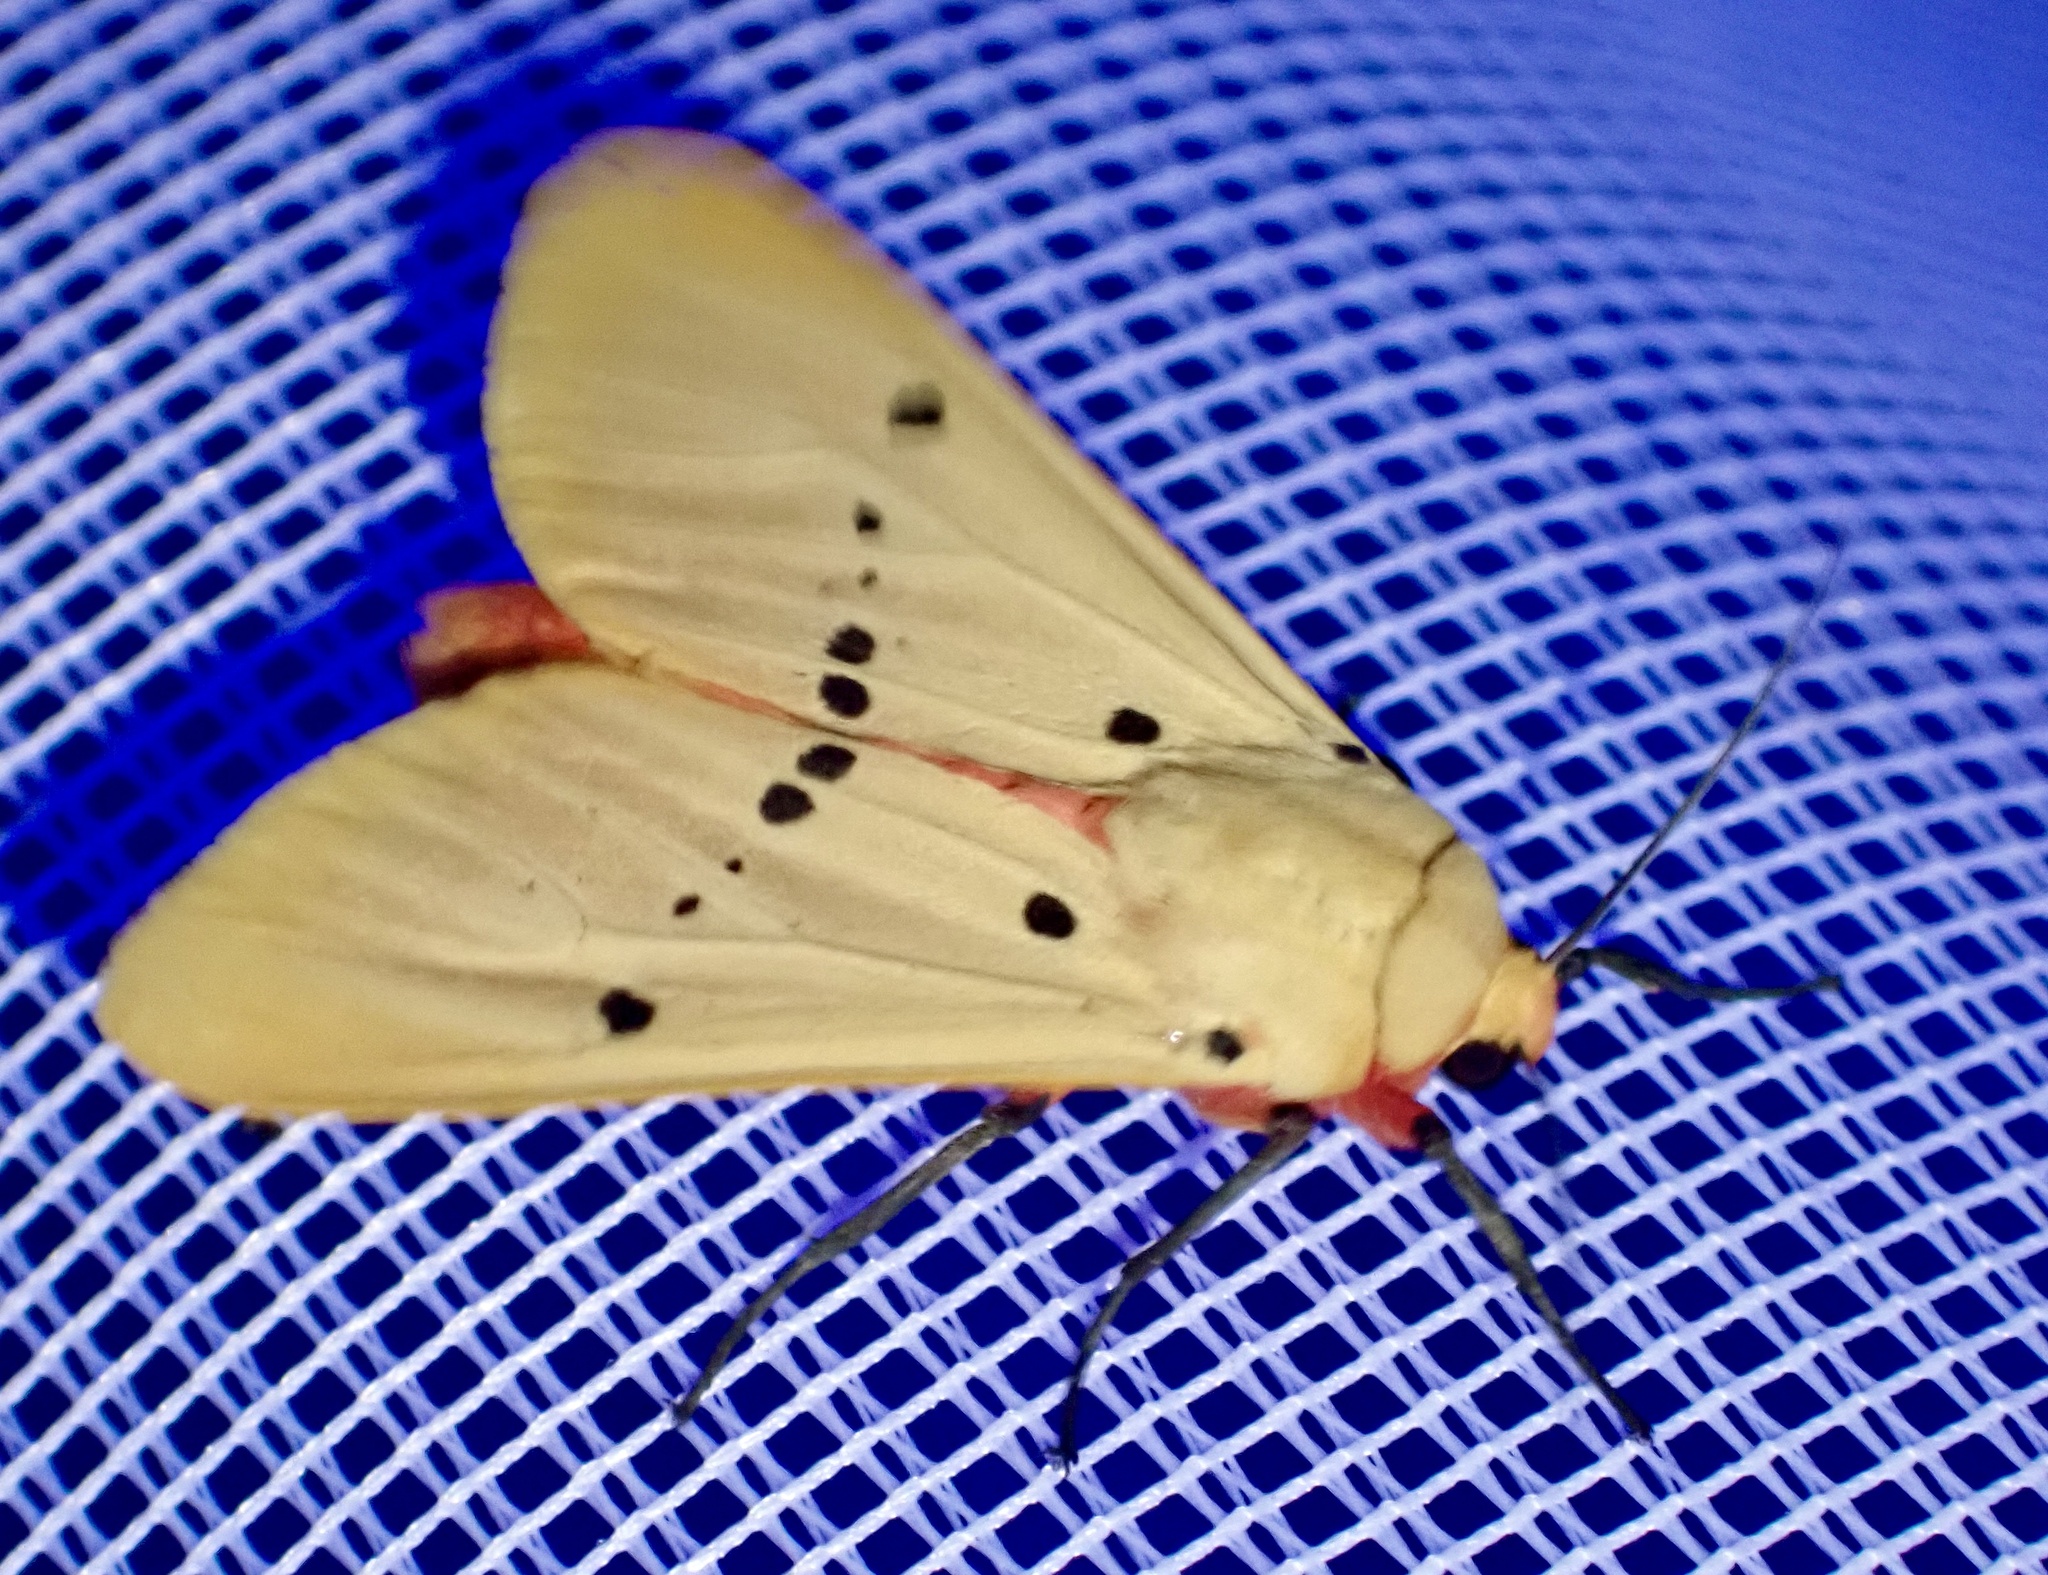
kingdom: Animalia
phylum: Arthropoda
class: Insecta
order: Lepidoptera
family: Erebidae
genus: Nicetosoma
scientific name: Nicetosoma
